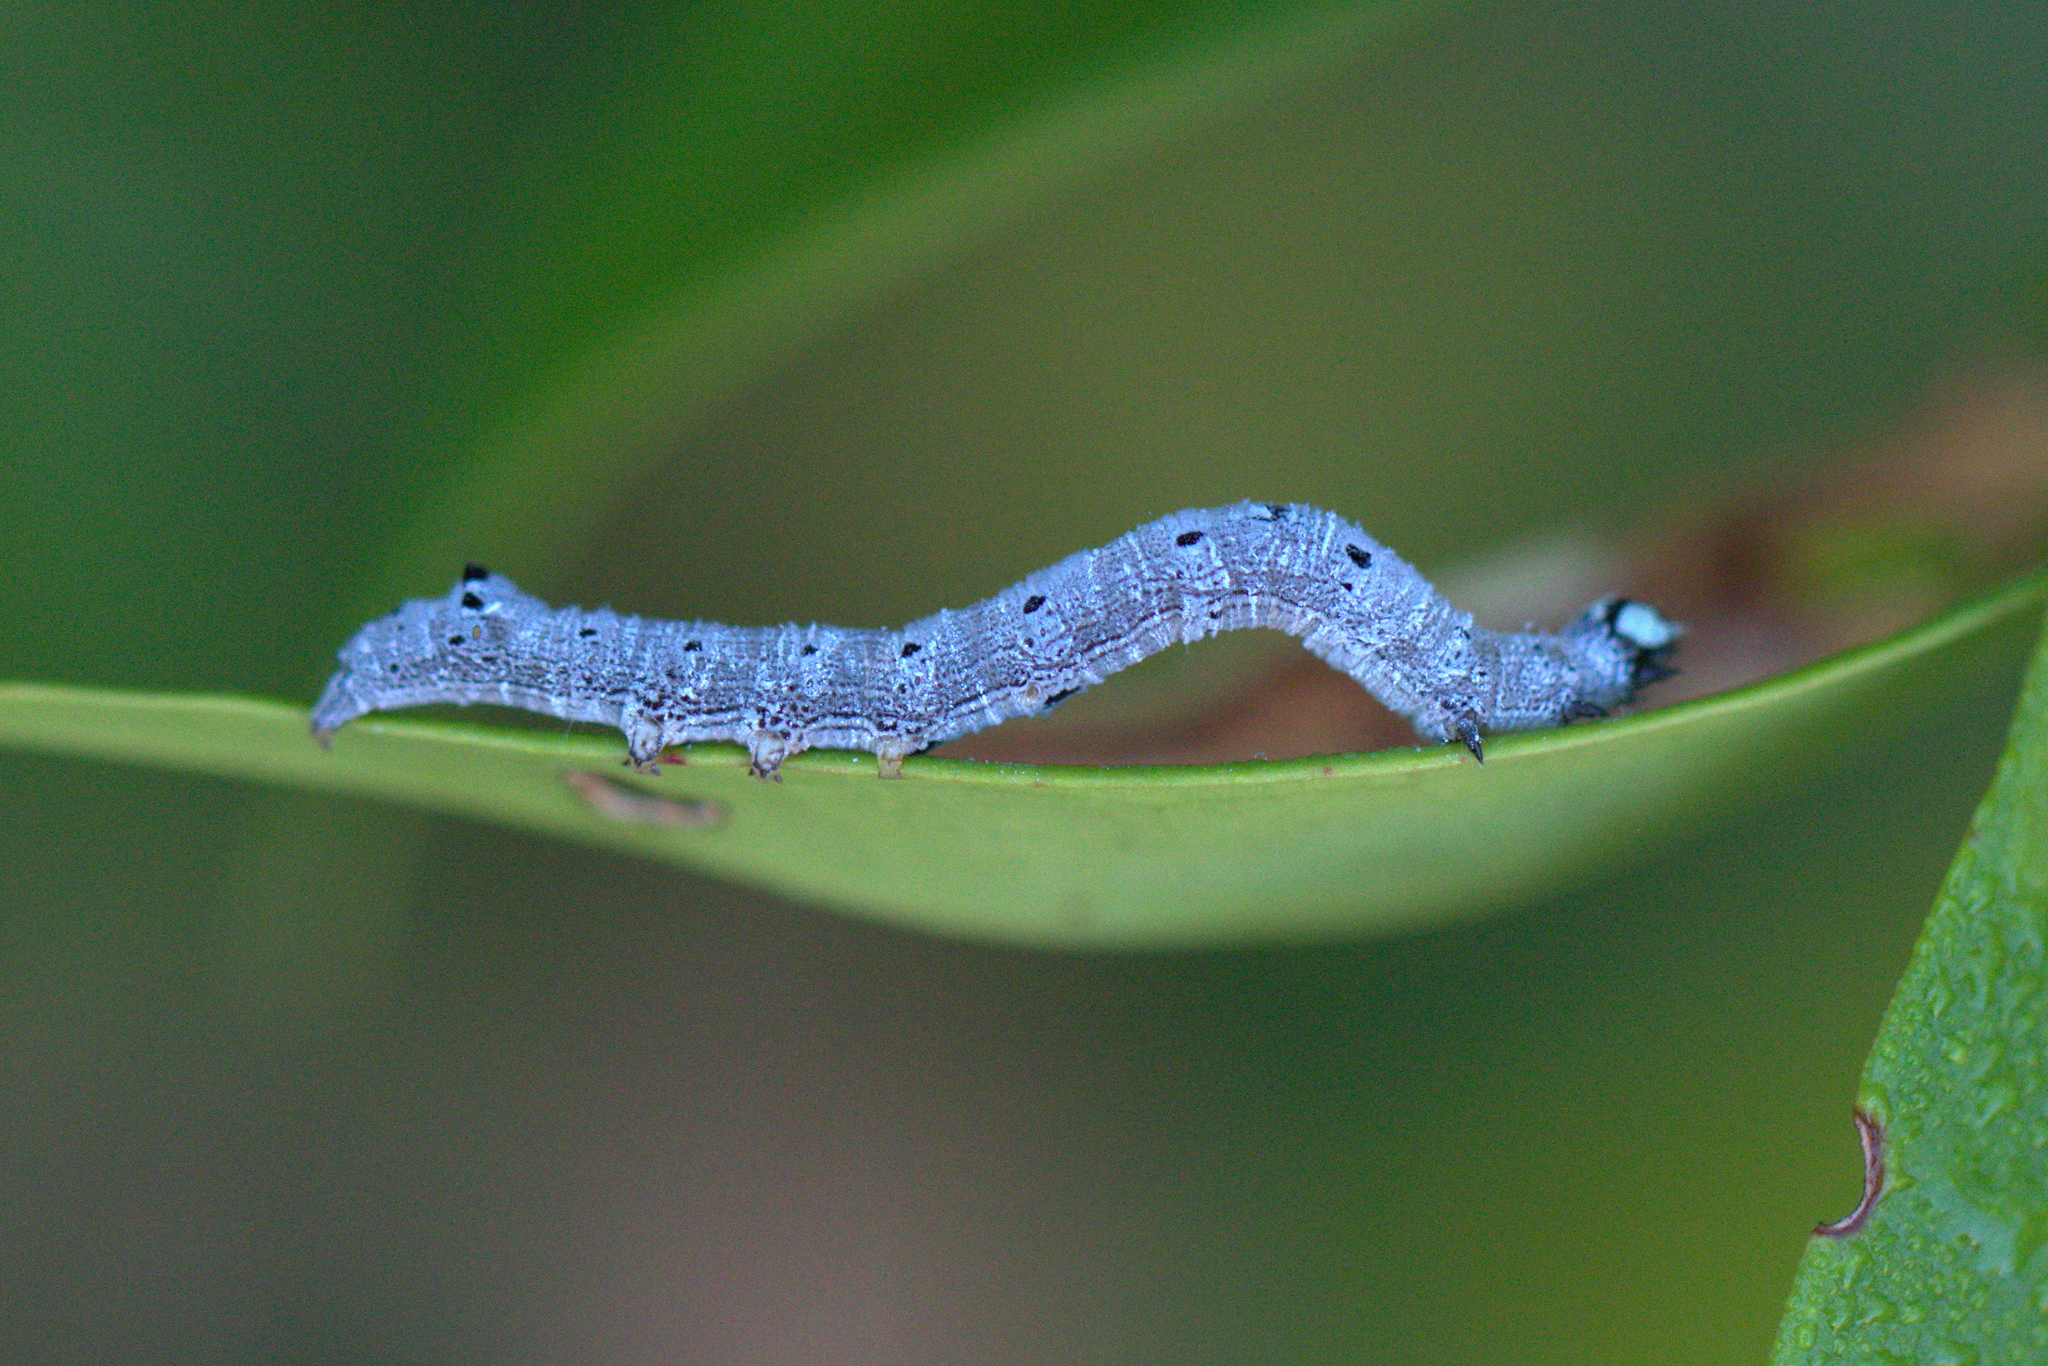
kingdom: Animalia
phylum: Arthropoda
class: Insecta
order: Lepidoptera
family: Erebidae
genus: Achaea
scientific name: Achaea janata
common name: Croton caterpillar
